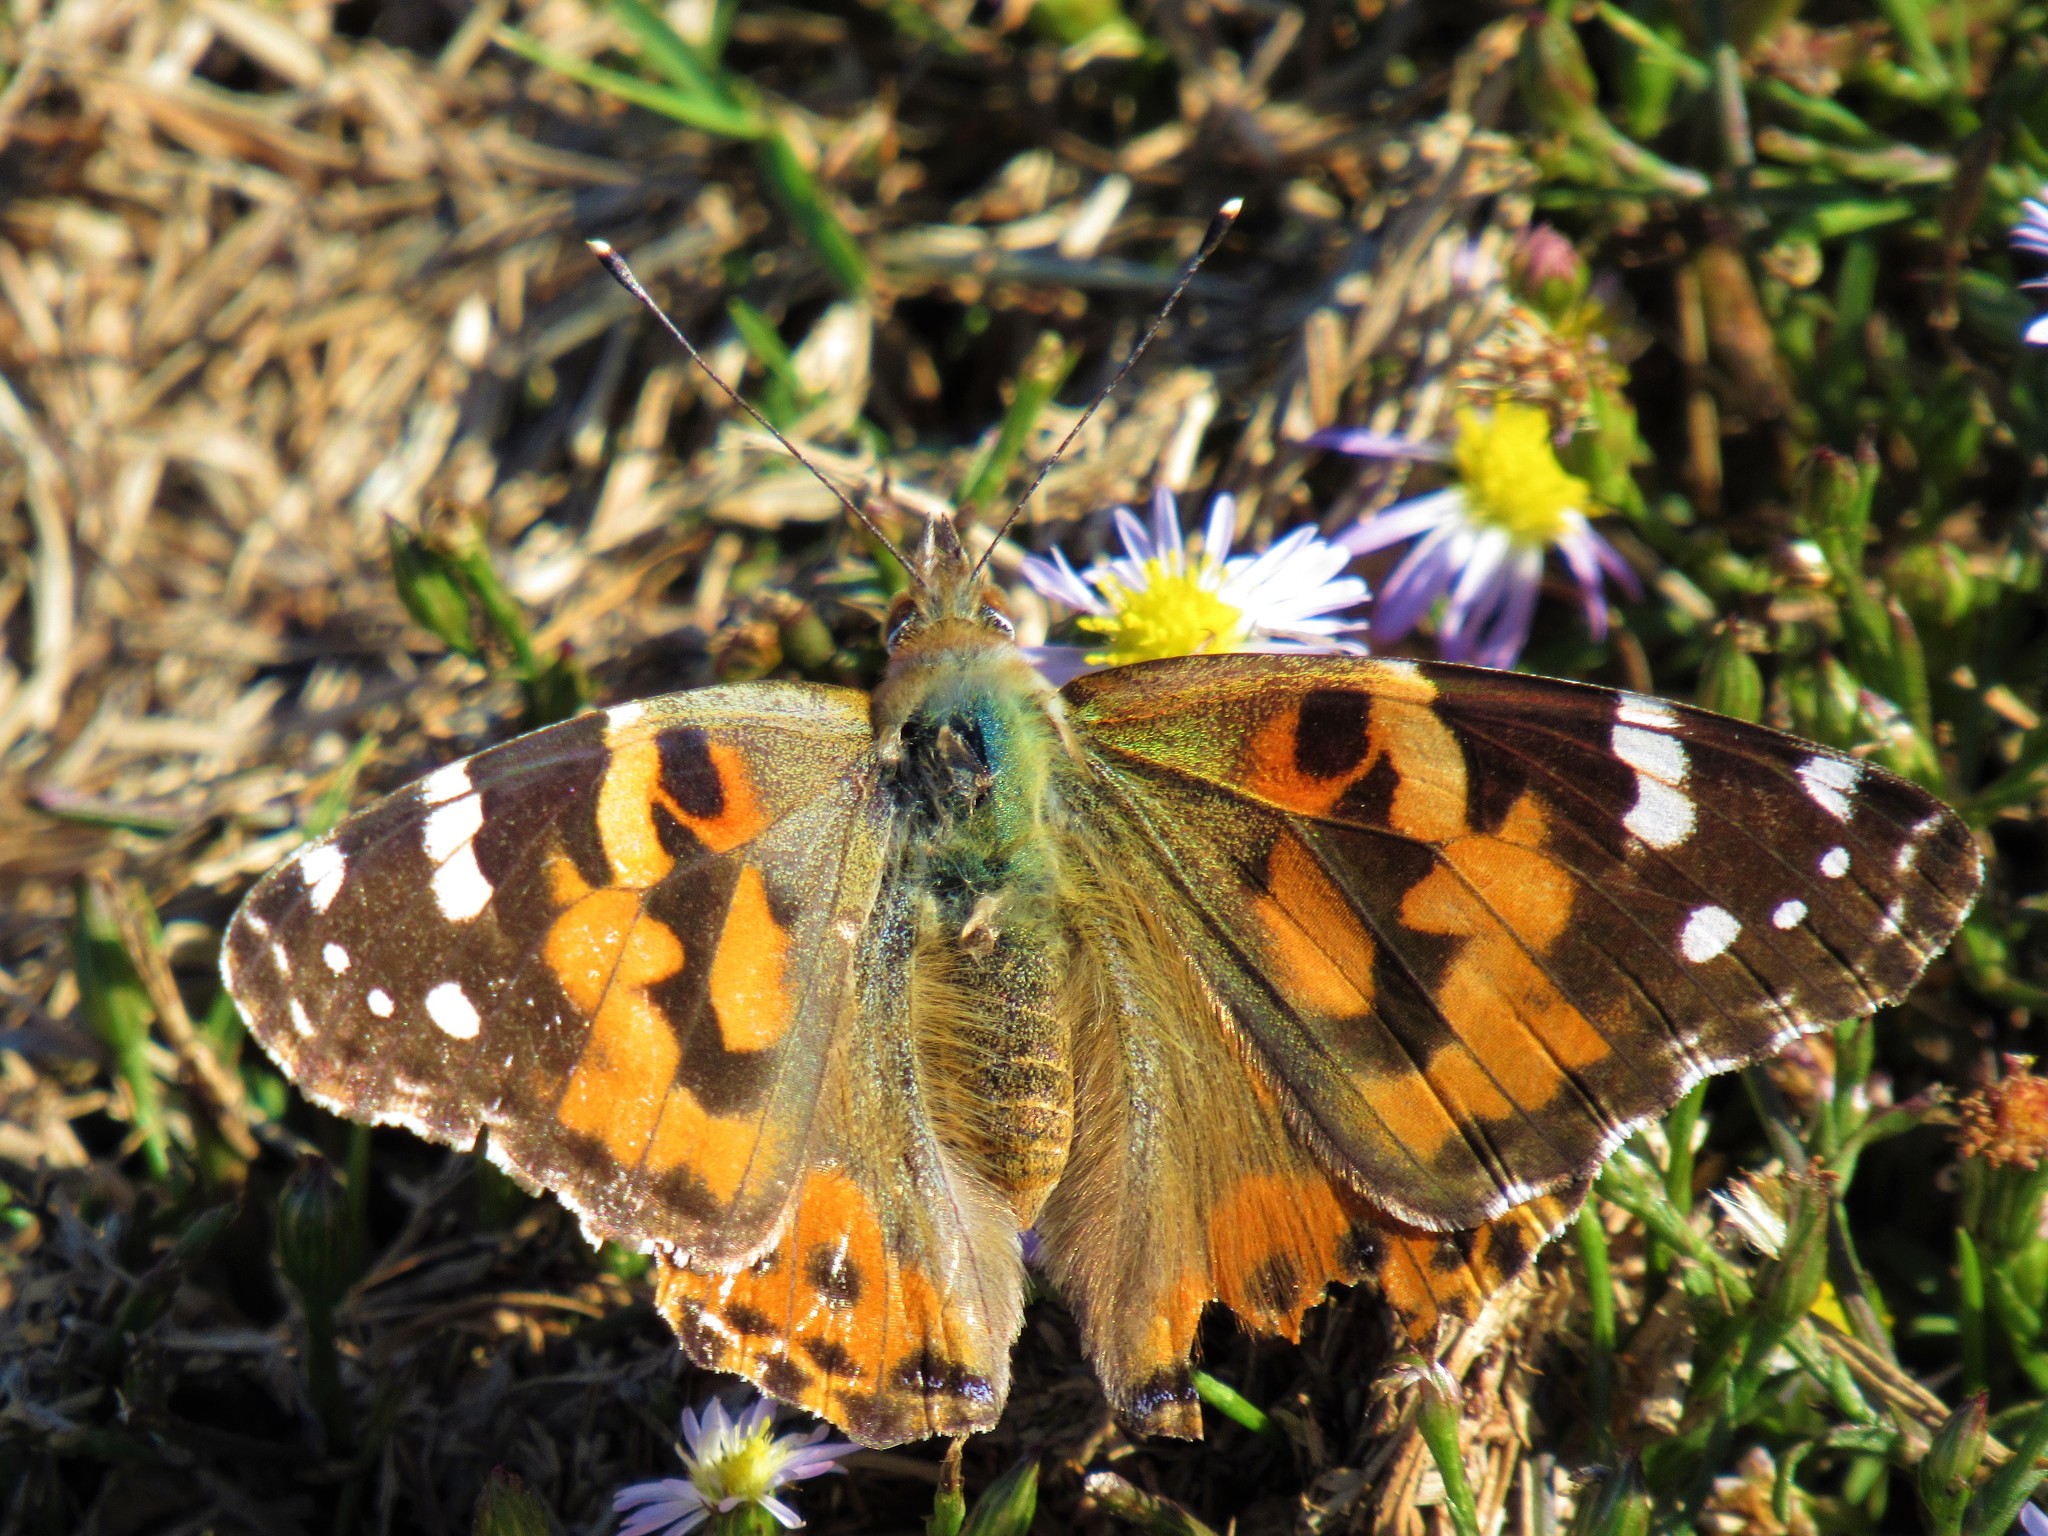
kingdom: Animalia
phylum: Arthropoda
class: Insecta
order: Lepidoptera
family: Nymphalidae
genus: Vanessa
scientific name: Vanessa cardui
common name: Painted lady
